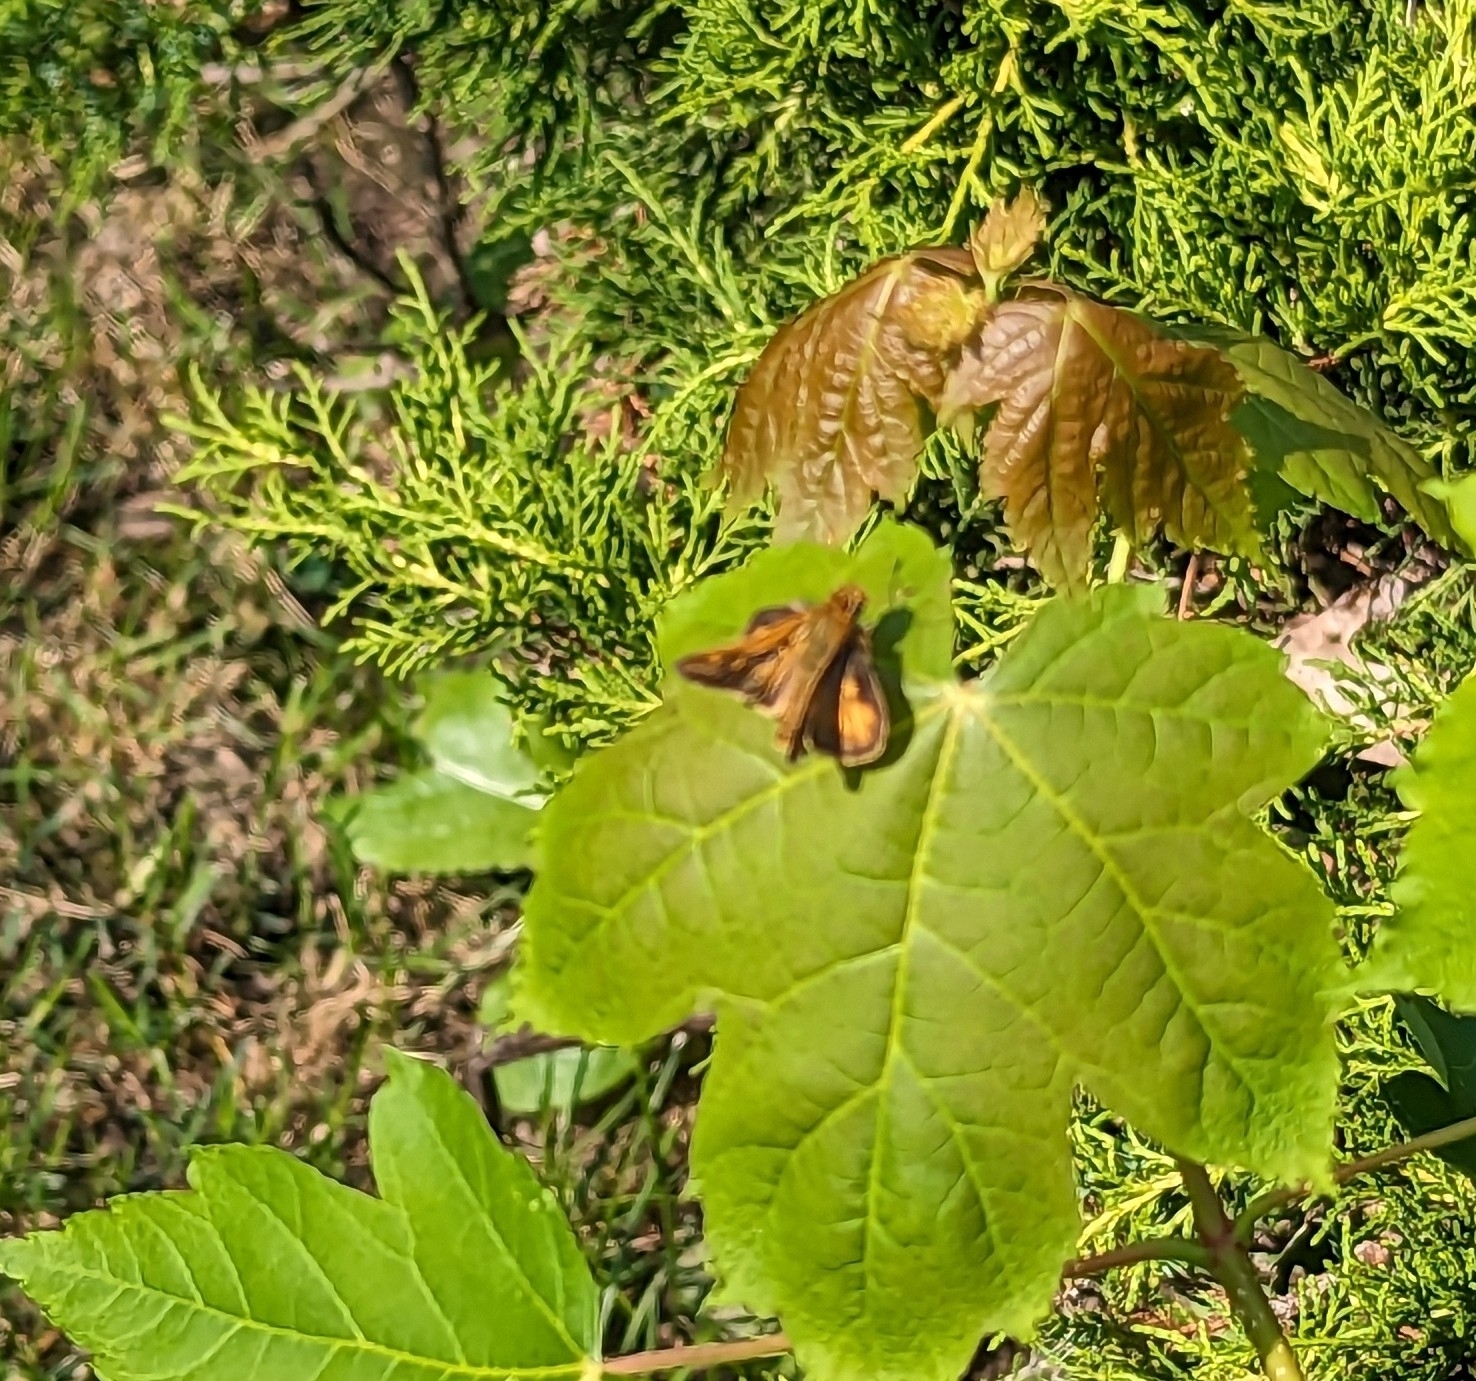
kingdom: Animalia
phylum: Arthropoda
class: Insecta
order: Lepidoptera
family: Hesperiidae
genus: Polites
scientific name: Polites coras
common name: Peck's skipper
